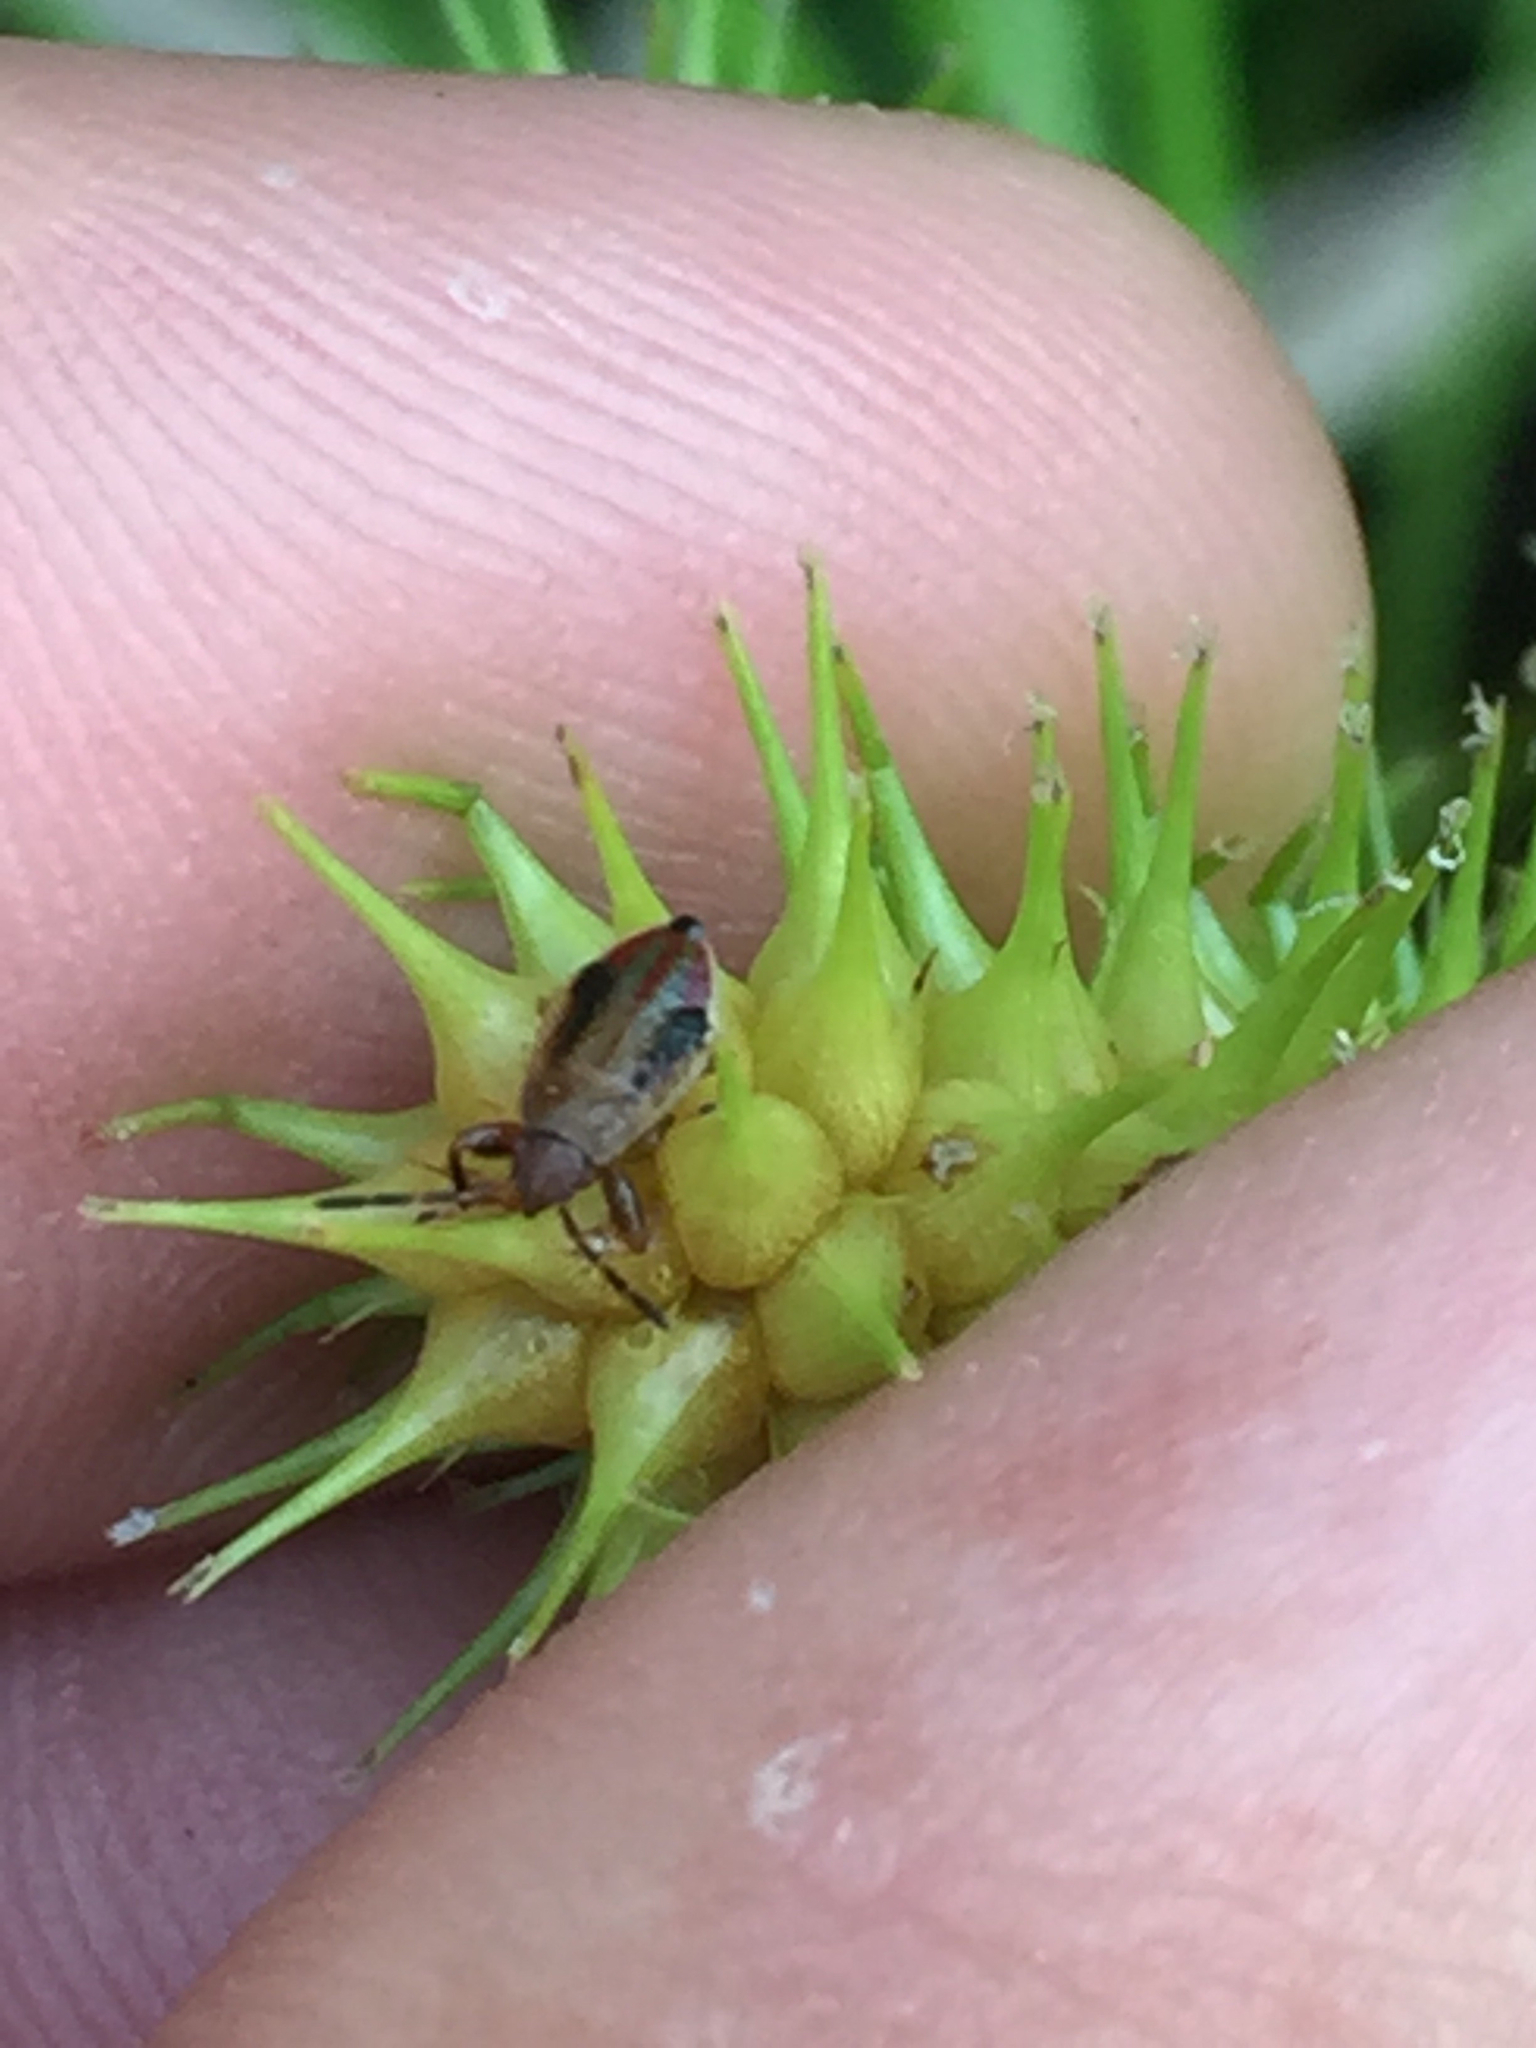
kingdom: Animalia
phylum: Arthropoda
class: Insecta
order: Hemiptera
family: Pachygronthidae
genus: Oedancala
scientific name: Oedancala dorsalis
